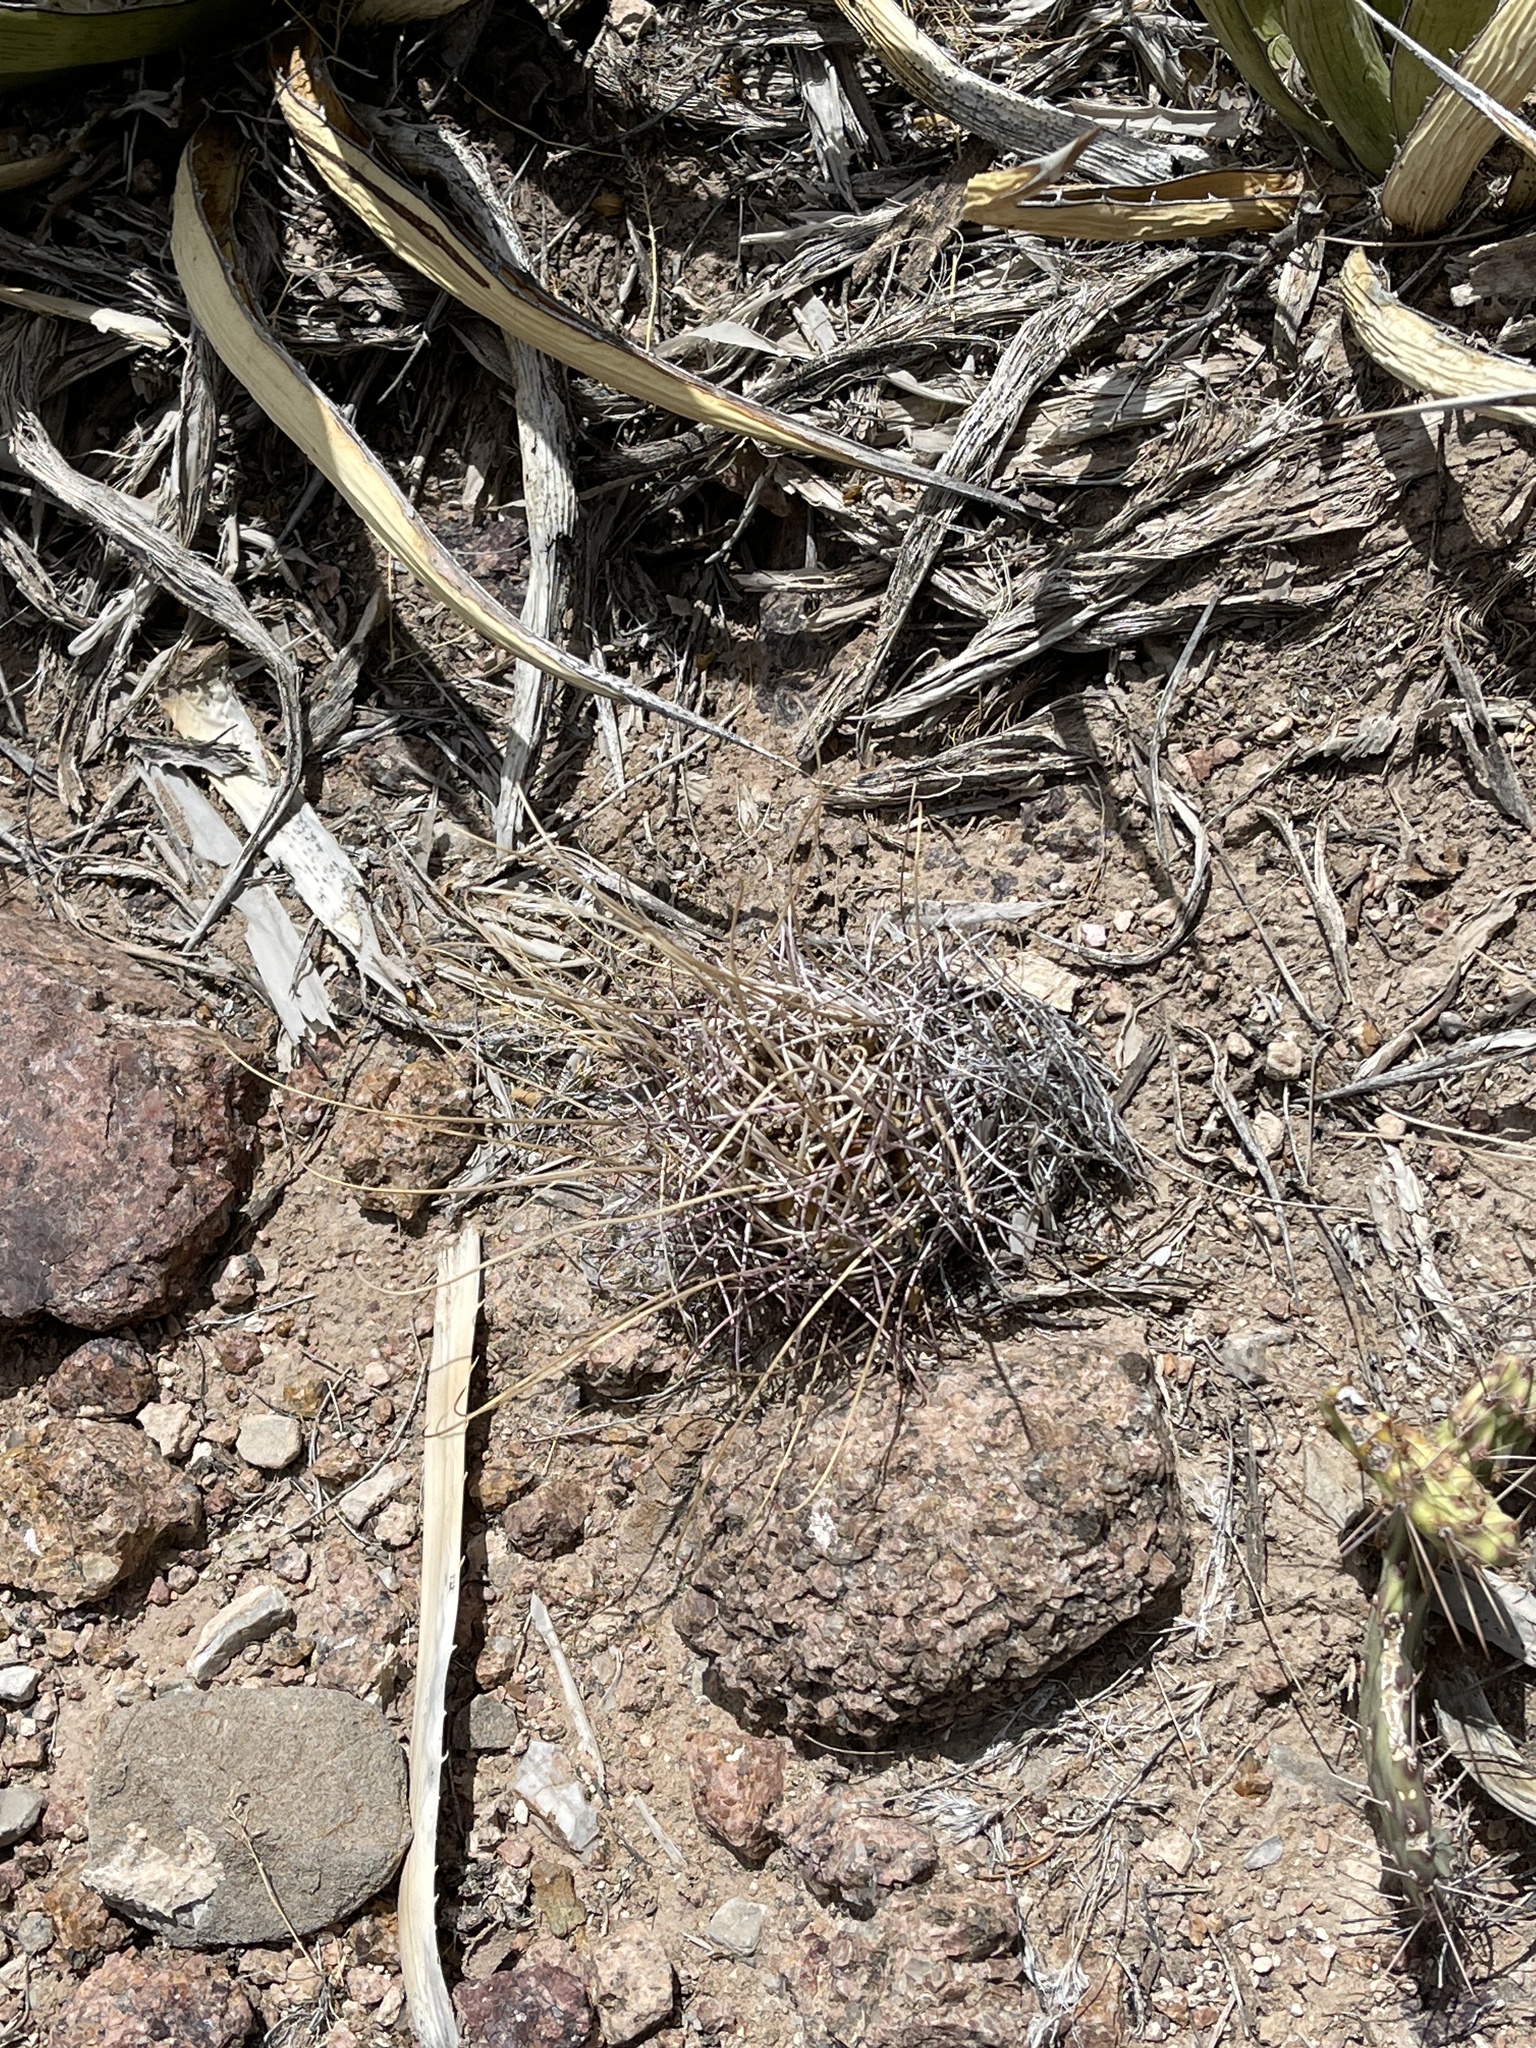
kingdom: Plantae
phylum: Tracheophyta
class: Magnoliopsida
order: Caryophyllales
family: Cactaceae
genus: Ferocactus
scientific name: Ferocactus uncinatus
